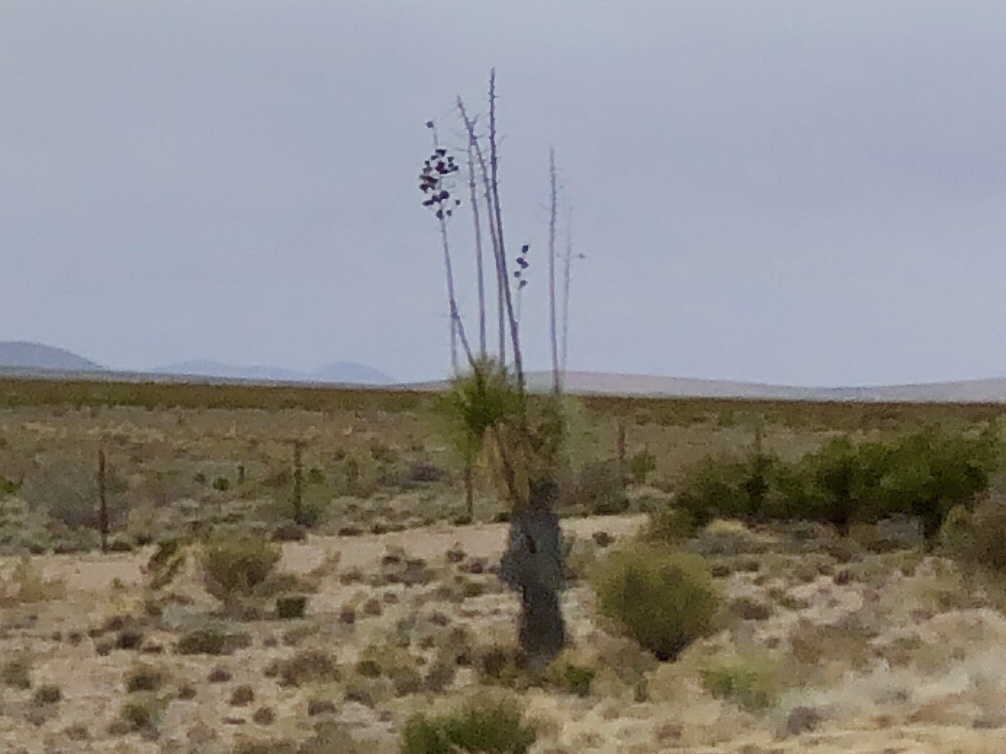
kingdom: Plantae
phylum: Tracheophyta
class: Liliopsida
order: Asparagales
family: Asparagaceae
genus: Yucca
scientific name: Yucca elata
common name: Palmella
